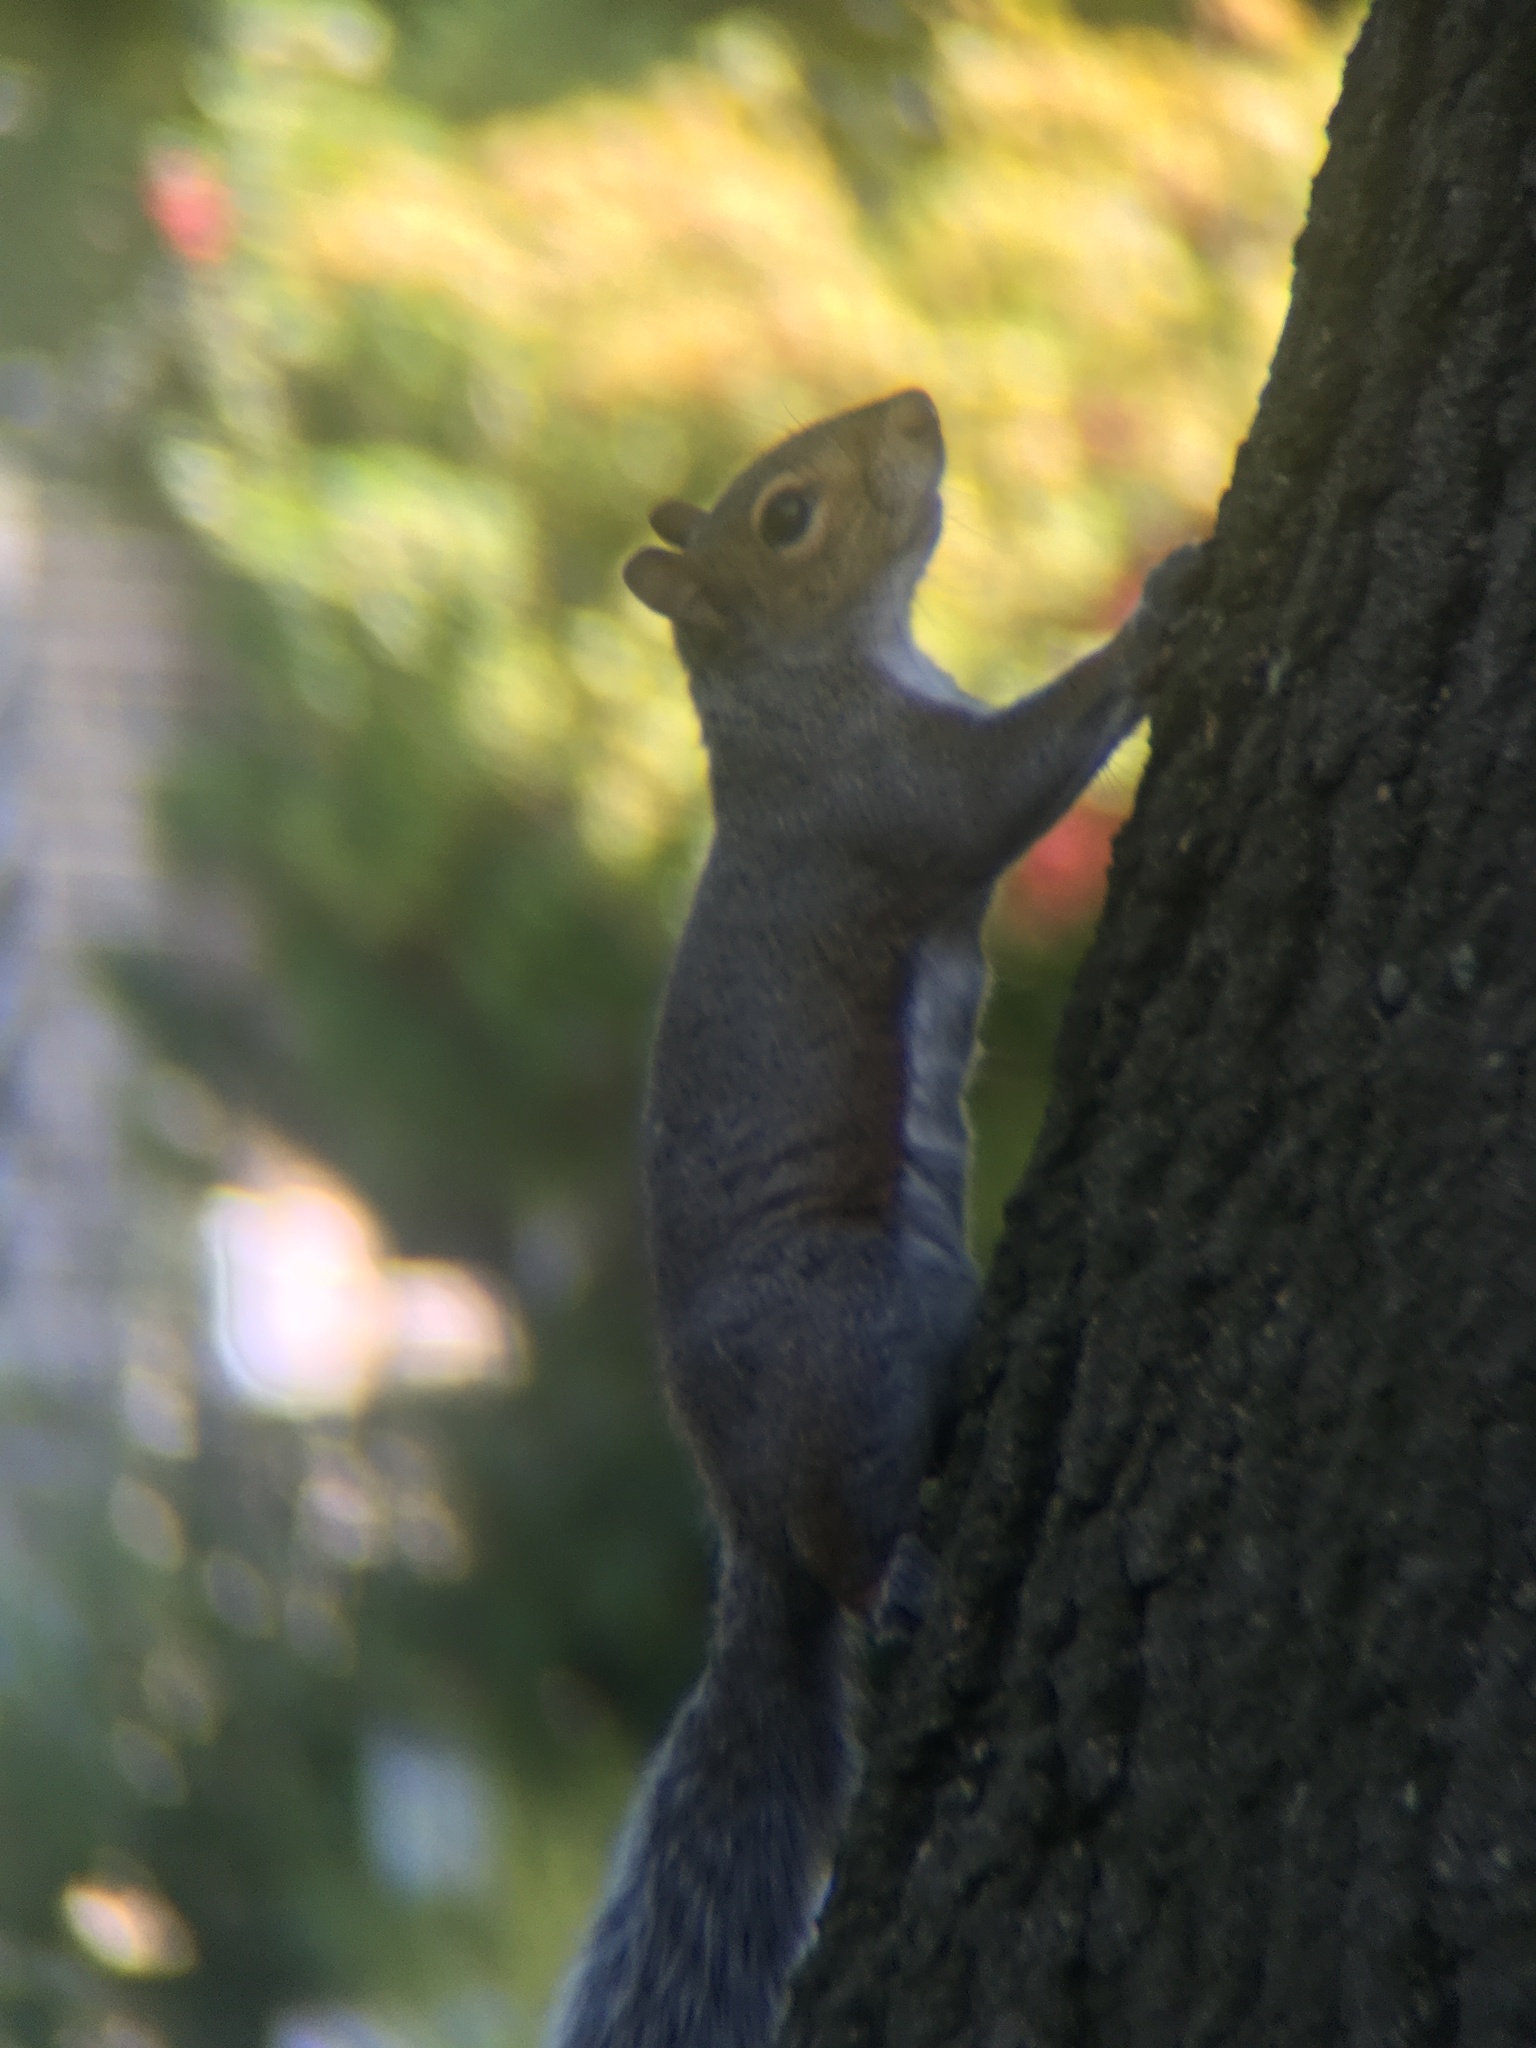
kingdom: Animalia
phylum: Chordata
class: Mammalia
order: Rodentia
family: Sciuridae
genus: Sciurus
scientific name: Sciurus carolinensis
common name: Eastern gray squirrel
